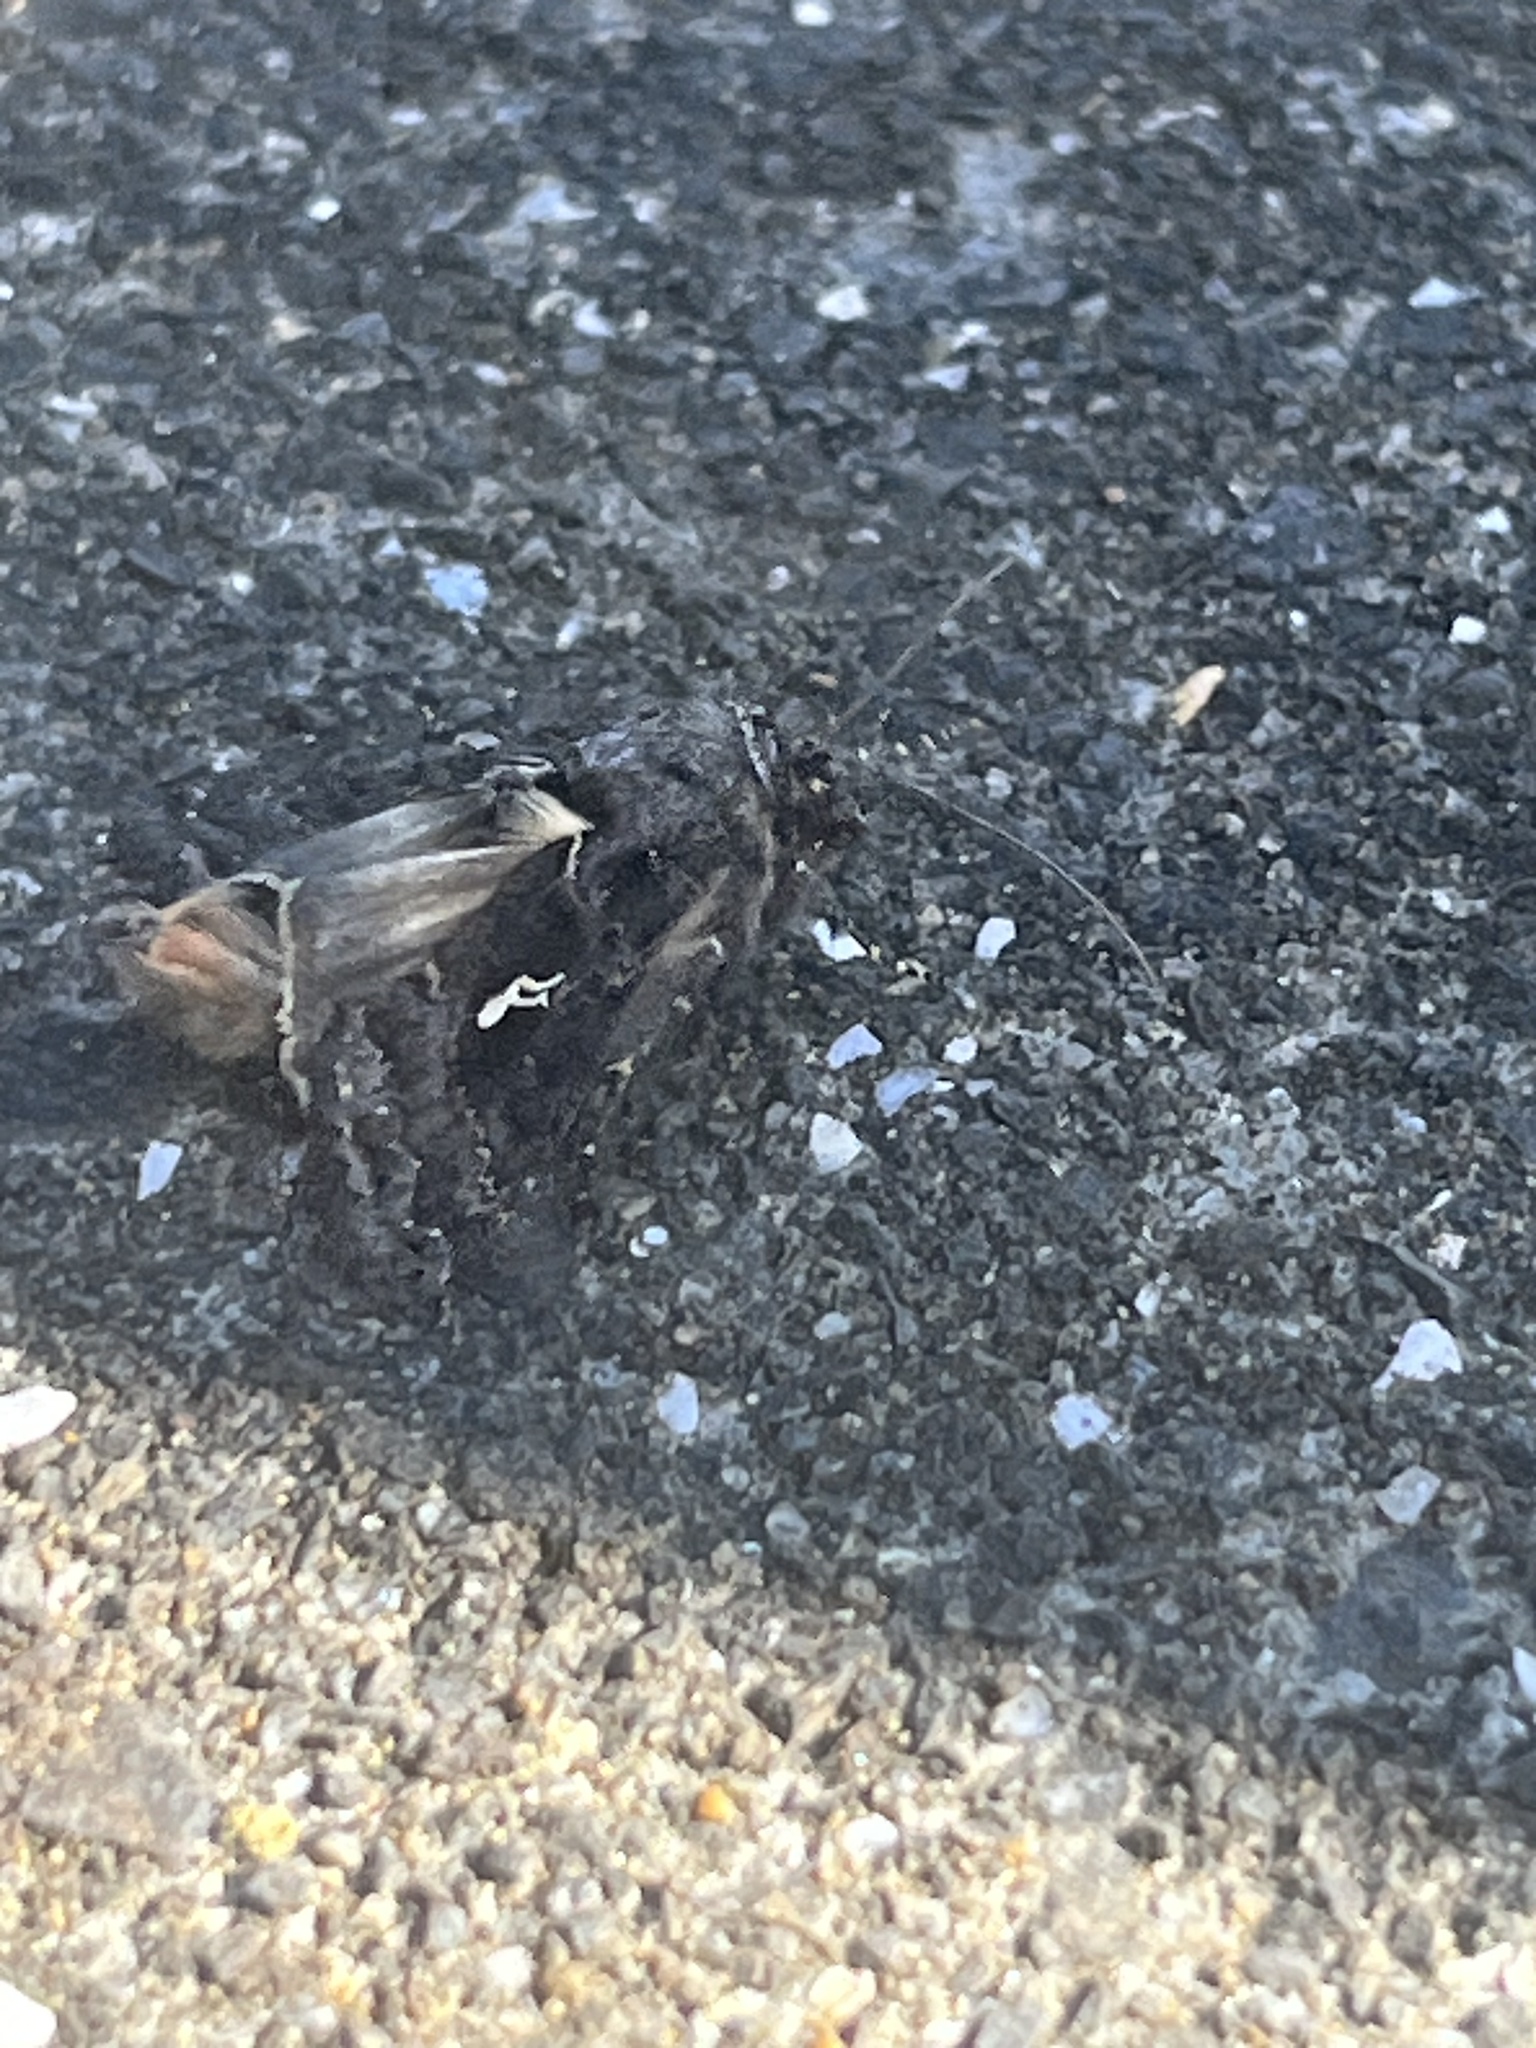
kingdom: Animalia
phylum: Arthropoda
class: Insecta
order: Lepidoptera
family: Noctuidae
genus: Ctenoplusia
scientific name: Ctenoplusia limbirena
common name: Scar bank gem
